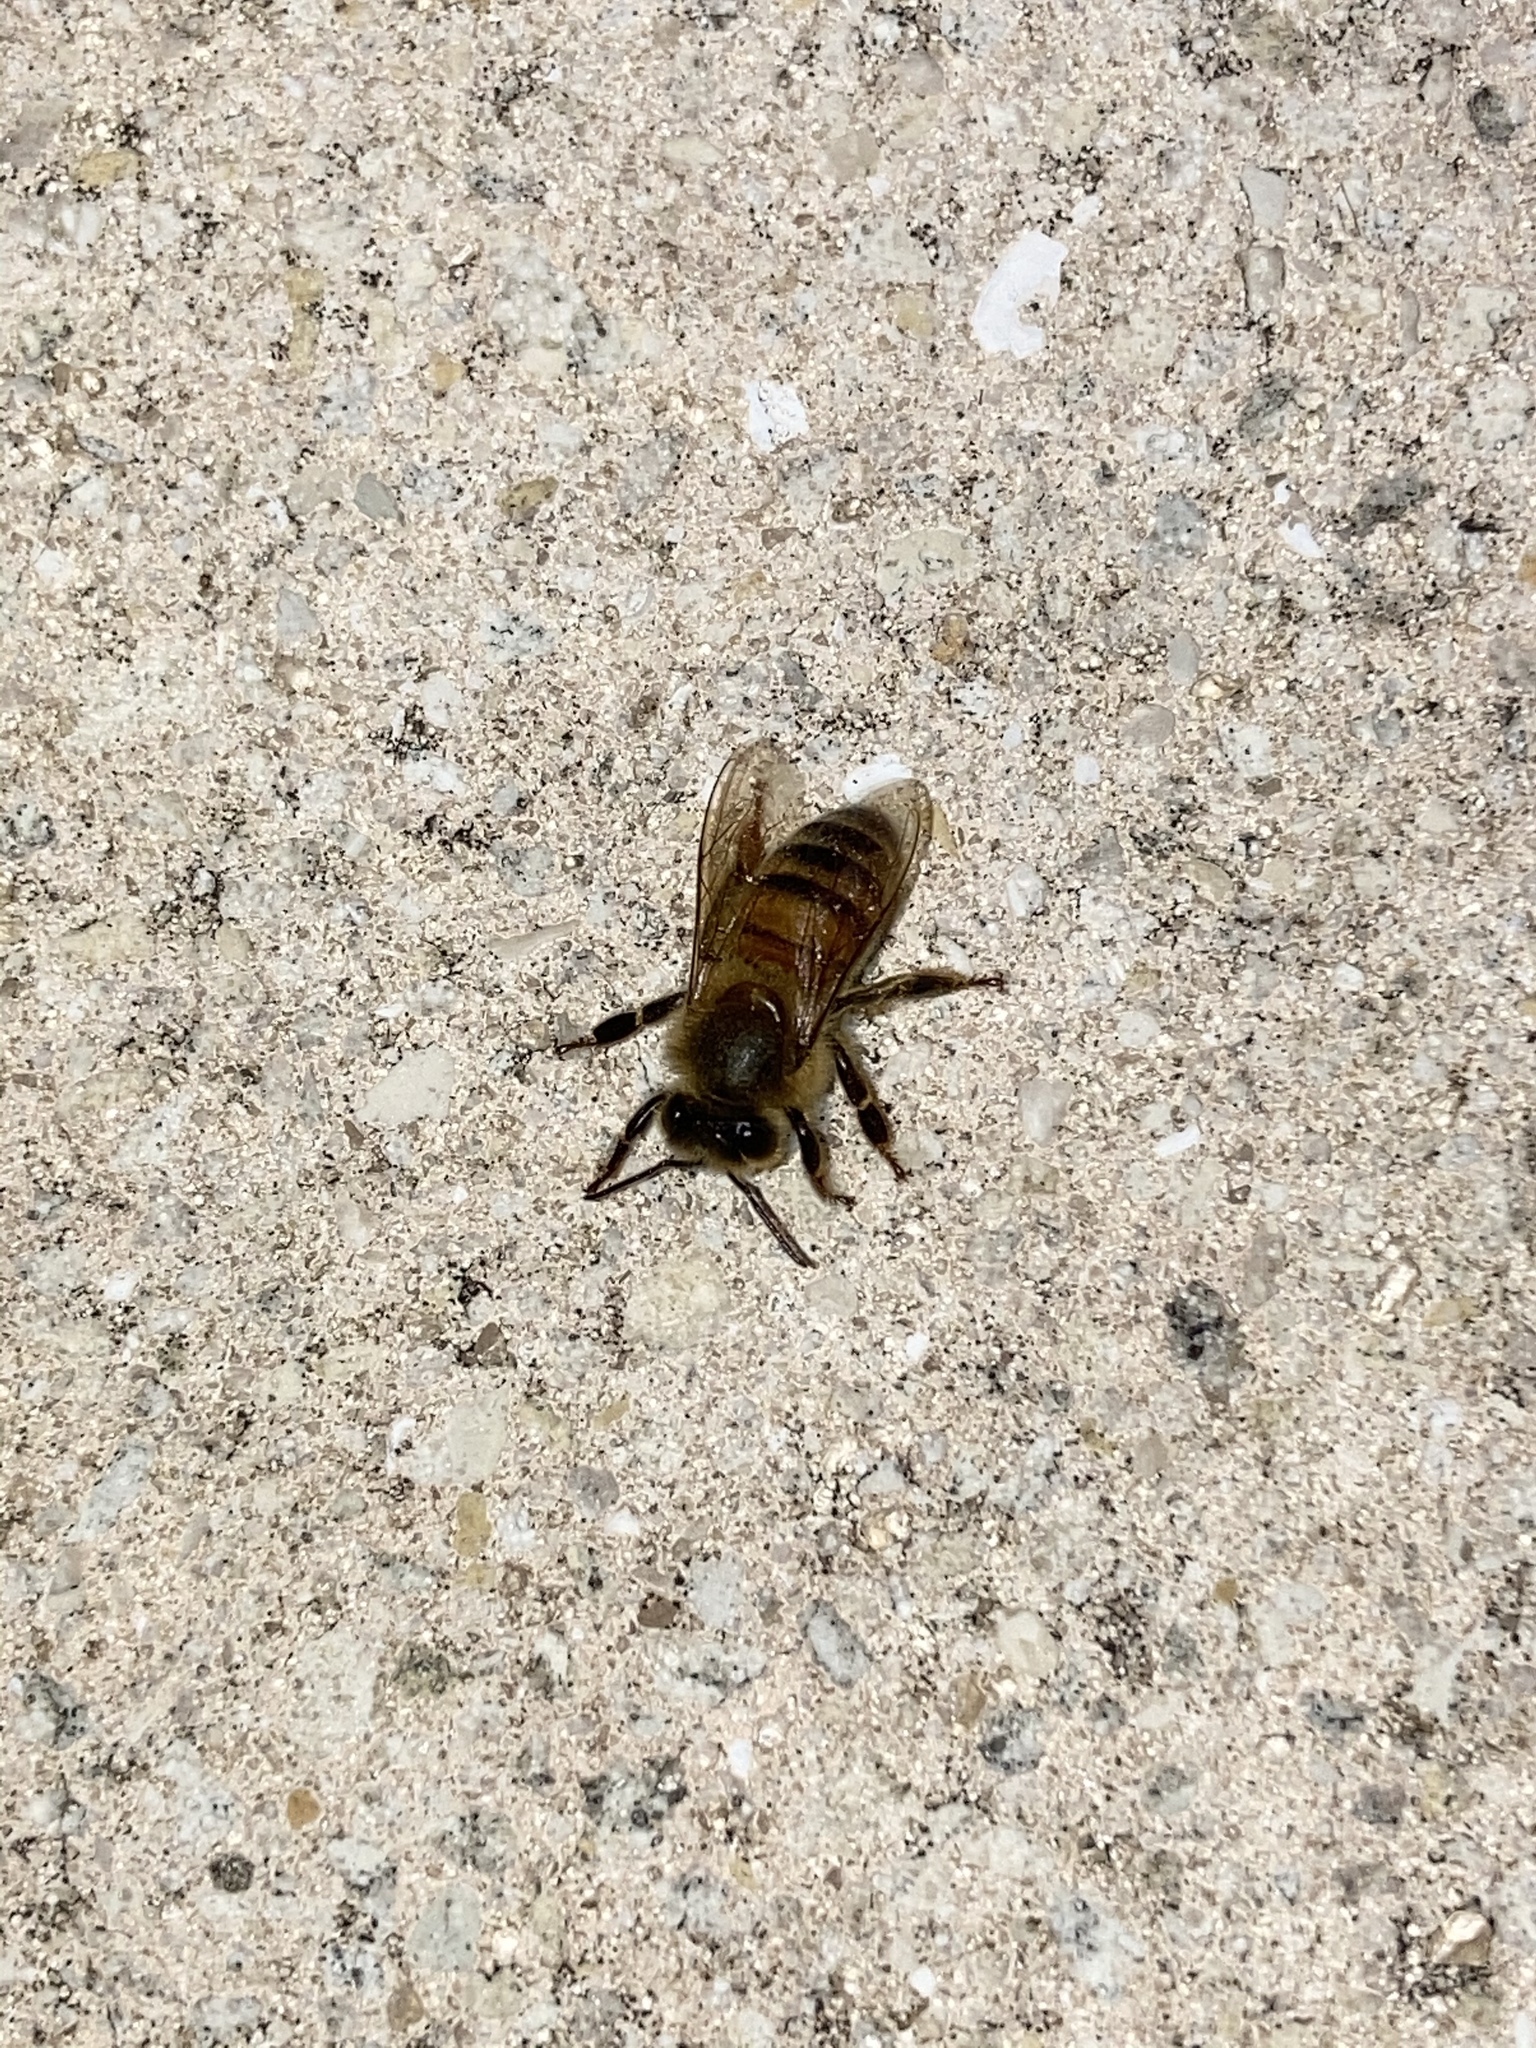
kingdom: Animalia
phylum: Arthropoda
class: Insecta
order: Hymenoptera
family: Apidae
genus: Apis
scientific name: Apis mellifera
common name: Honey bee
